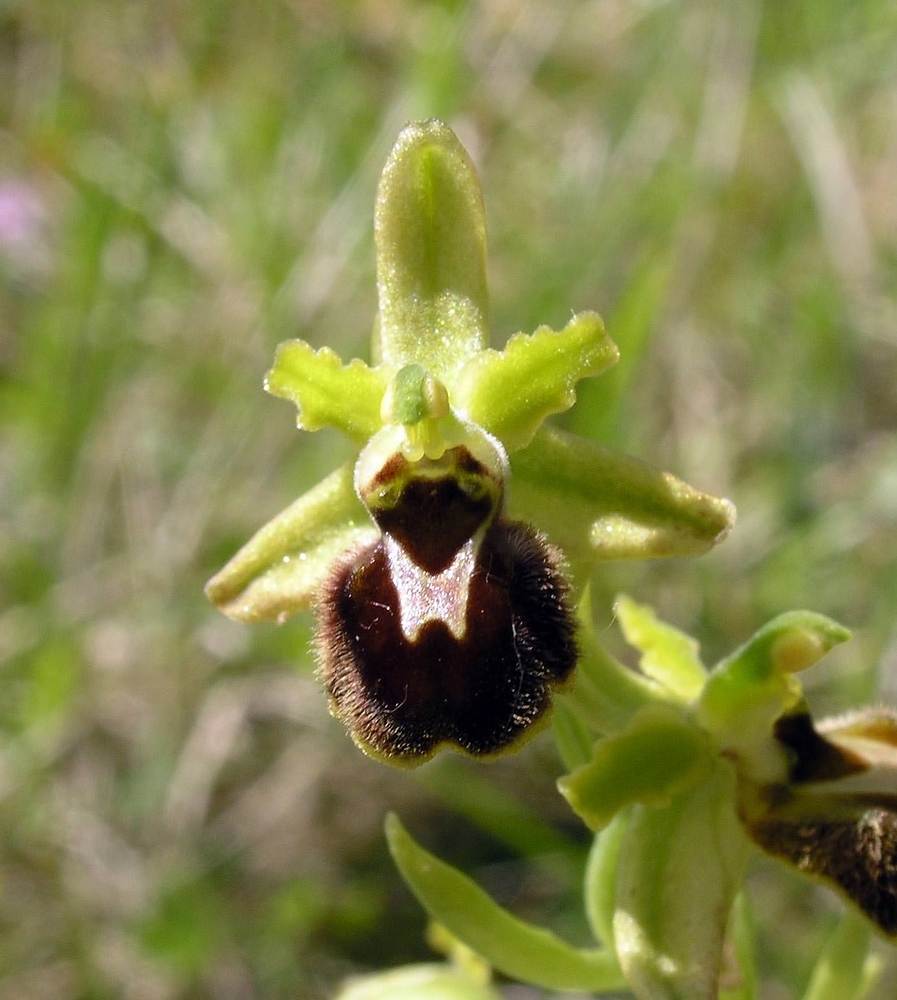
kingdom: Plantae
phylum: Tracheophyta
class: Liliopsida
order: Asparagales
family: Orchidaceae
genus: Ophrys
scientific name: Ophrys araneola
